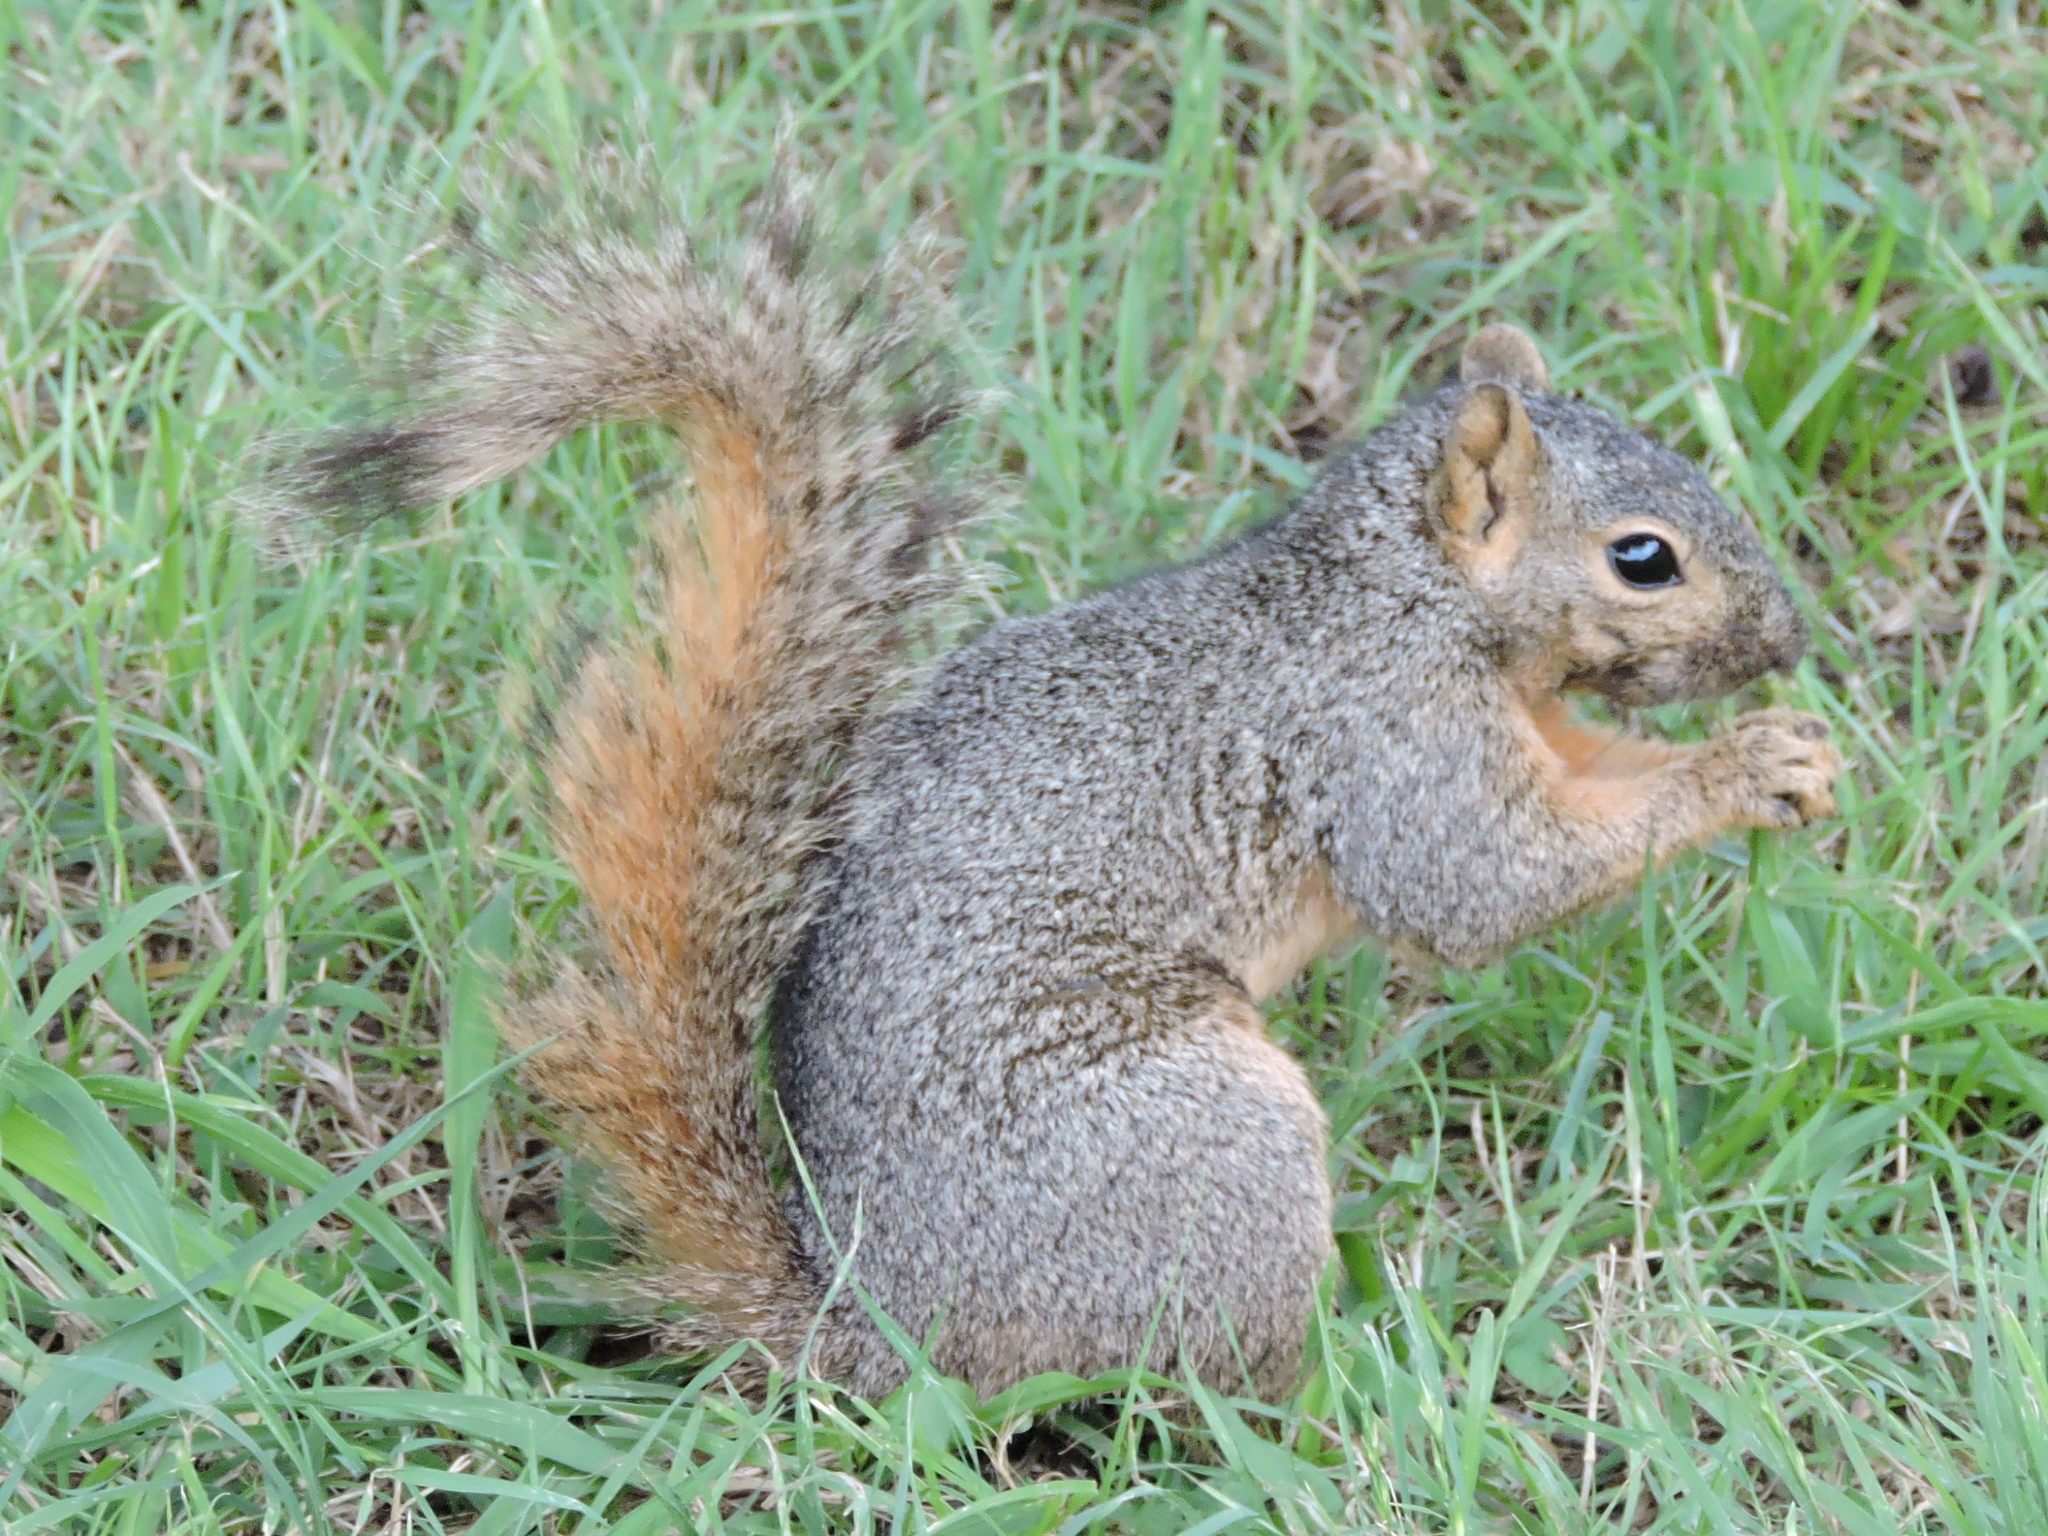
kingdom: Animalia
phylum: Chordata
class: Mammalia
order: Rodentia
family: Sciuridae
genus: Sciurus
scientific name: Sciurus niger
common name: Fox squirrel
